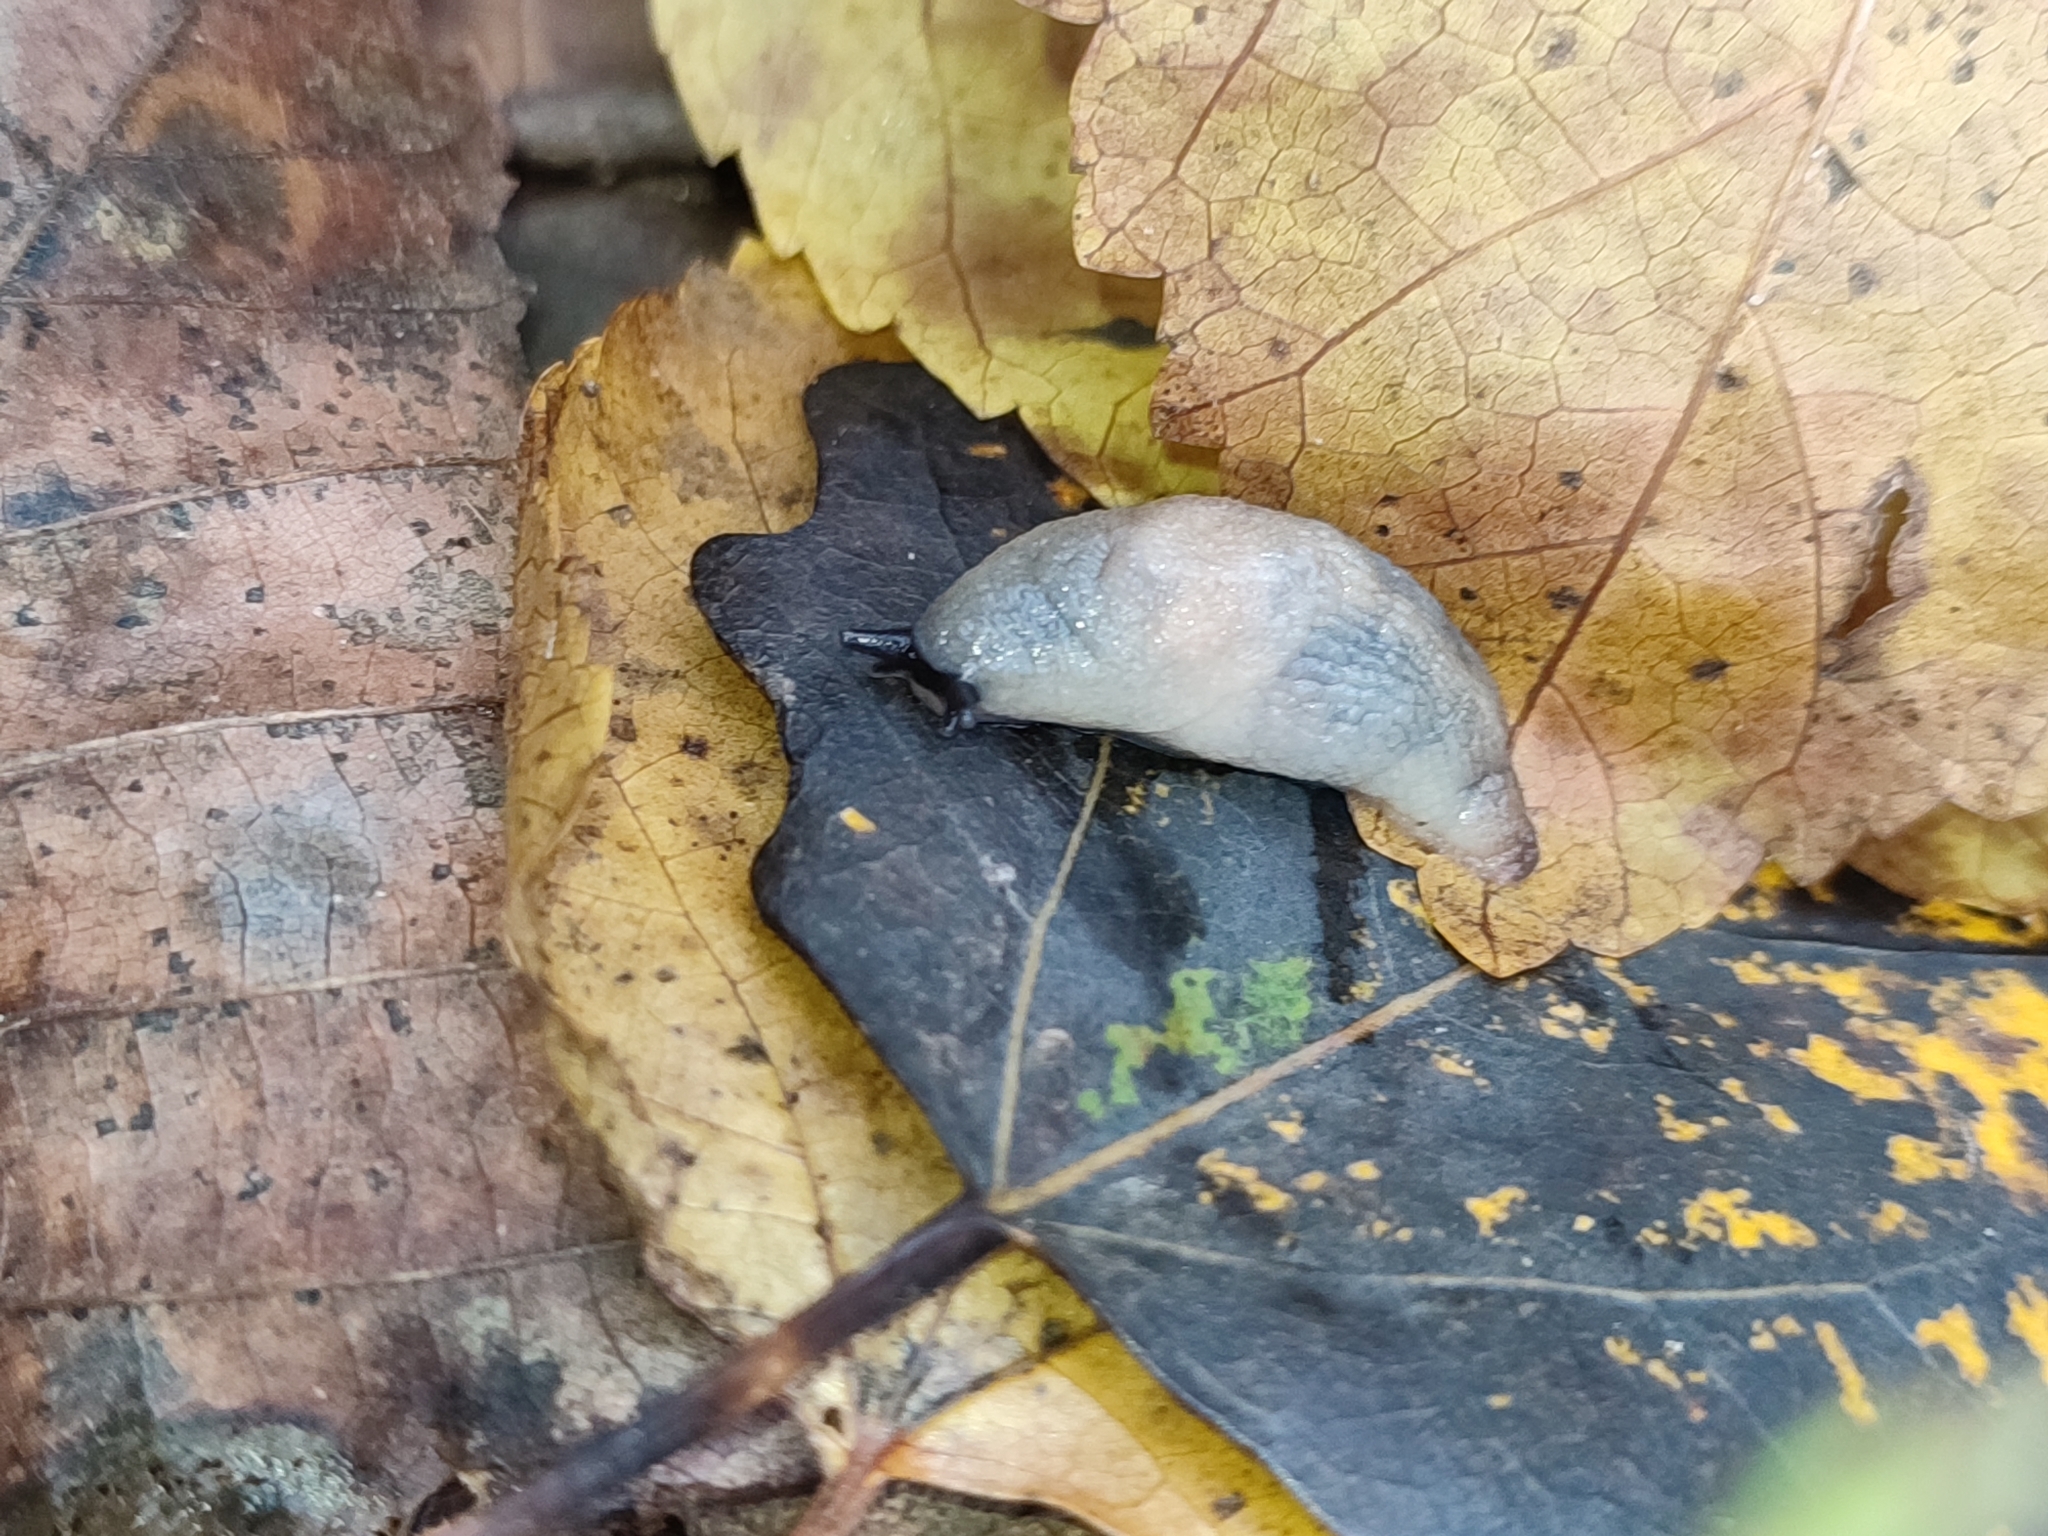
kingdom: Animalia
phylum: Mollusca
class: Gastropoda
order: Stylommatophora
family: Agriolimacidae
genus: Krynickillus
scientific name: Krynickillus melanocephalus
